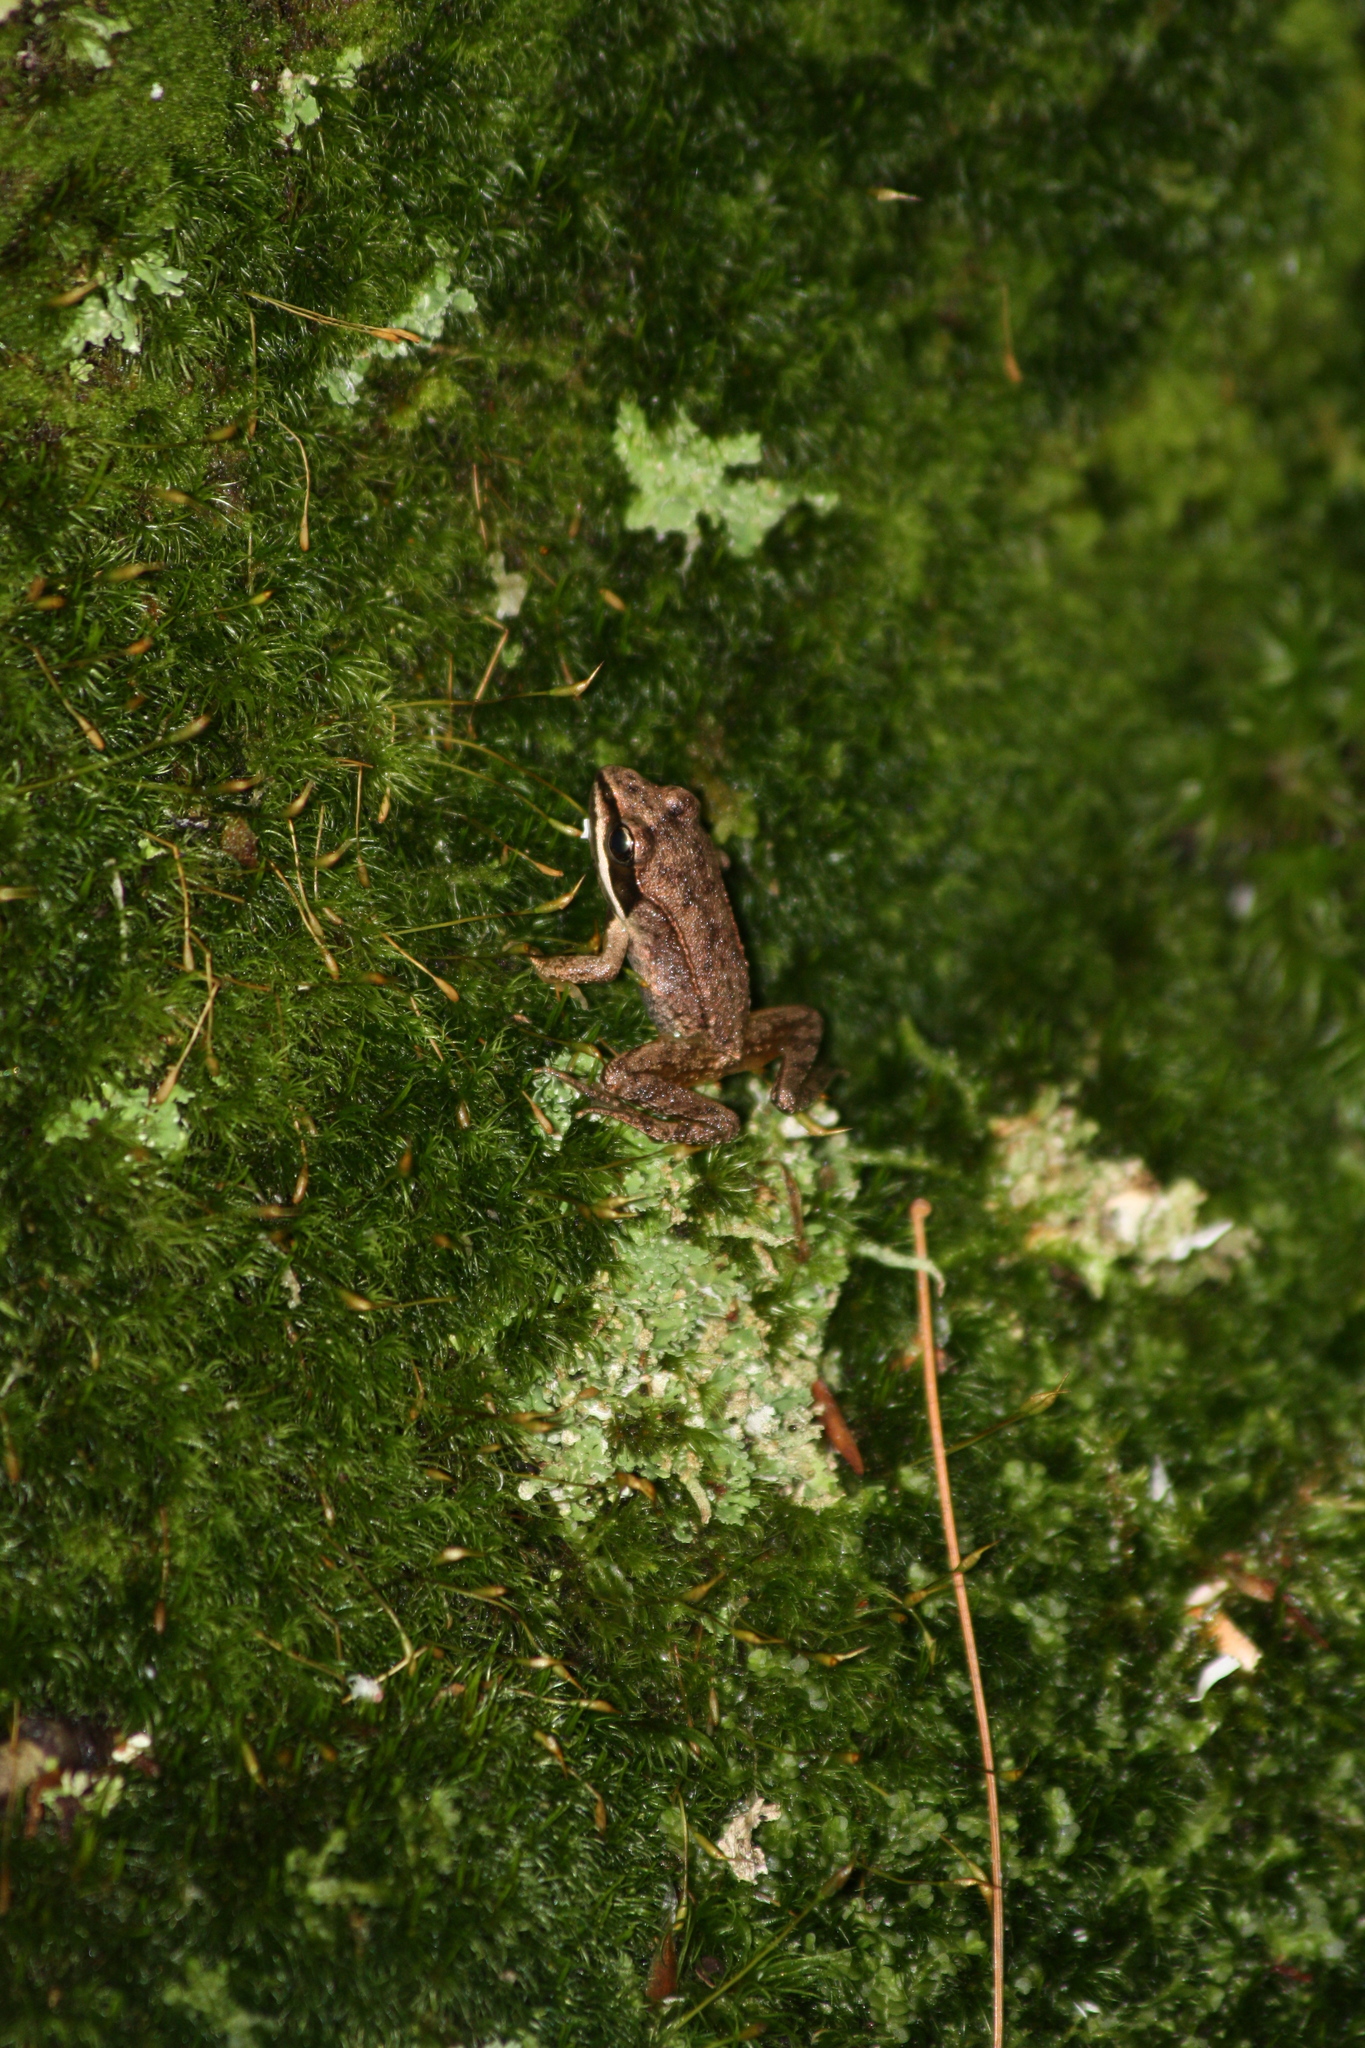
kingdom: Animalia
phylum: Chordata
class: Amphibia
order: Anura
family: Ranidae
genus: Lithobates
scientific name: Lithobates sylvaticus
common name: Wood frog
